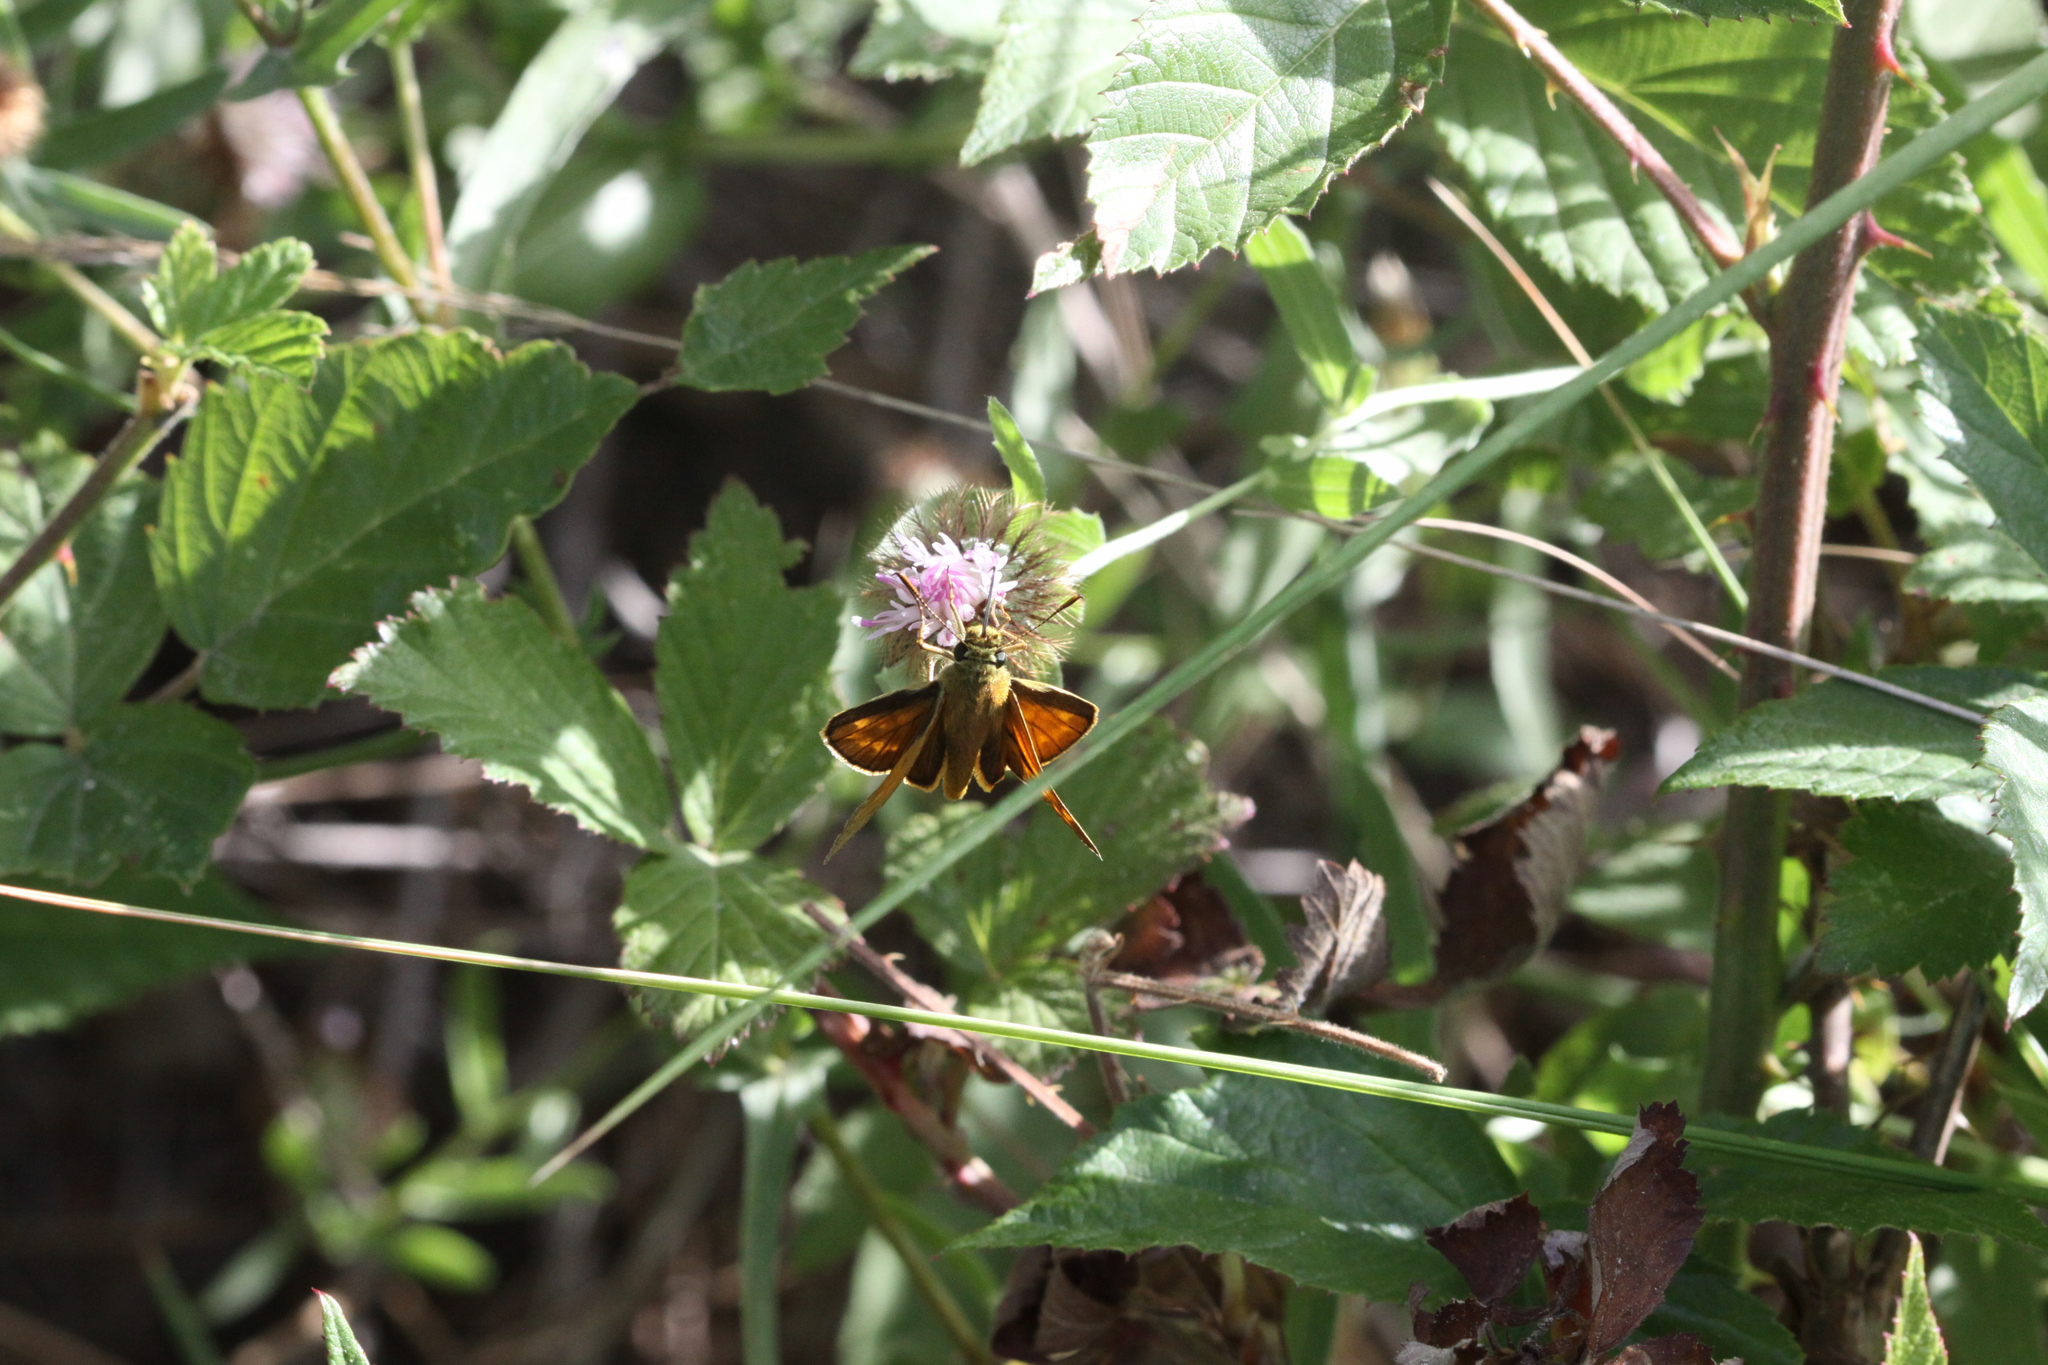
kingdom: Animalia
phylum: Arthropoda
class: Insecta
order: Lepidoptera
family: Hesperiidae
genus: Ochlodes
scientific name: Ochlodes venata
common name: Large skipper
